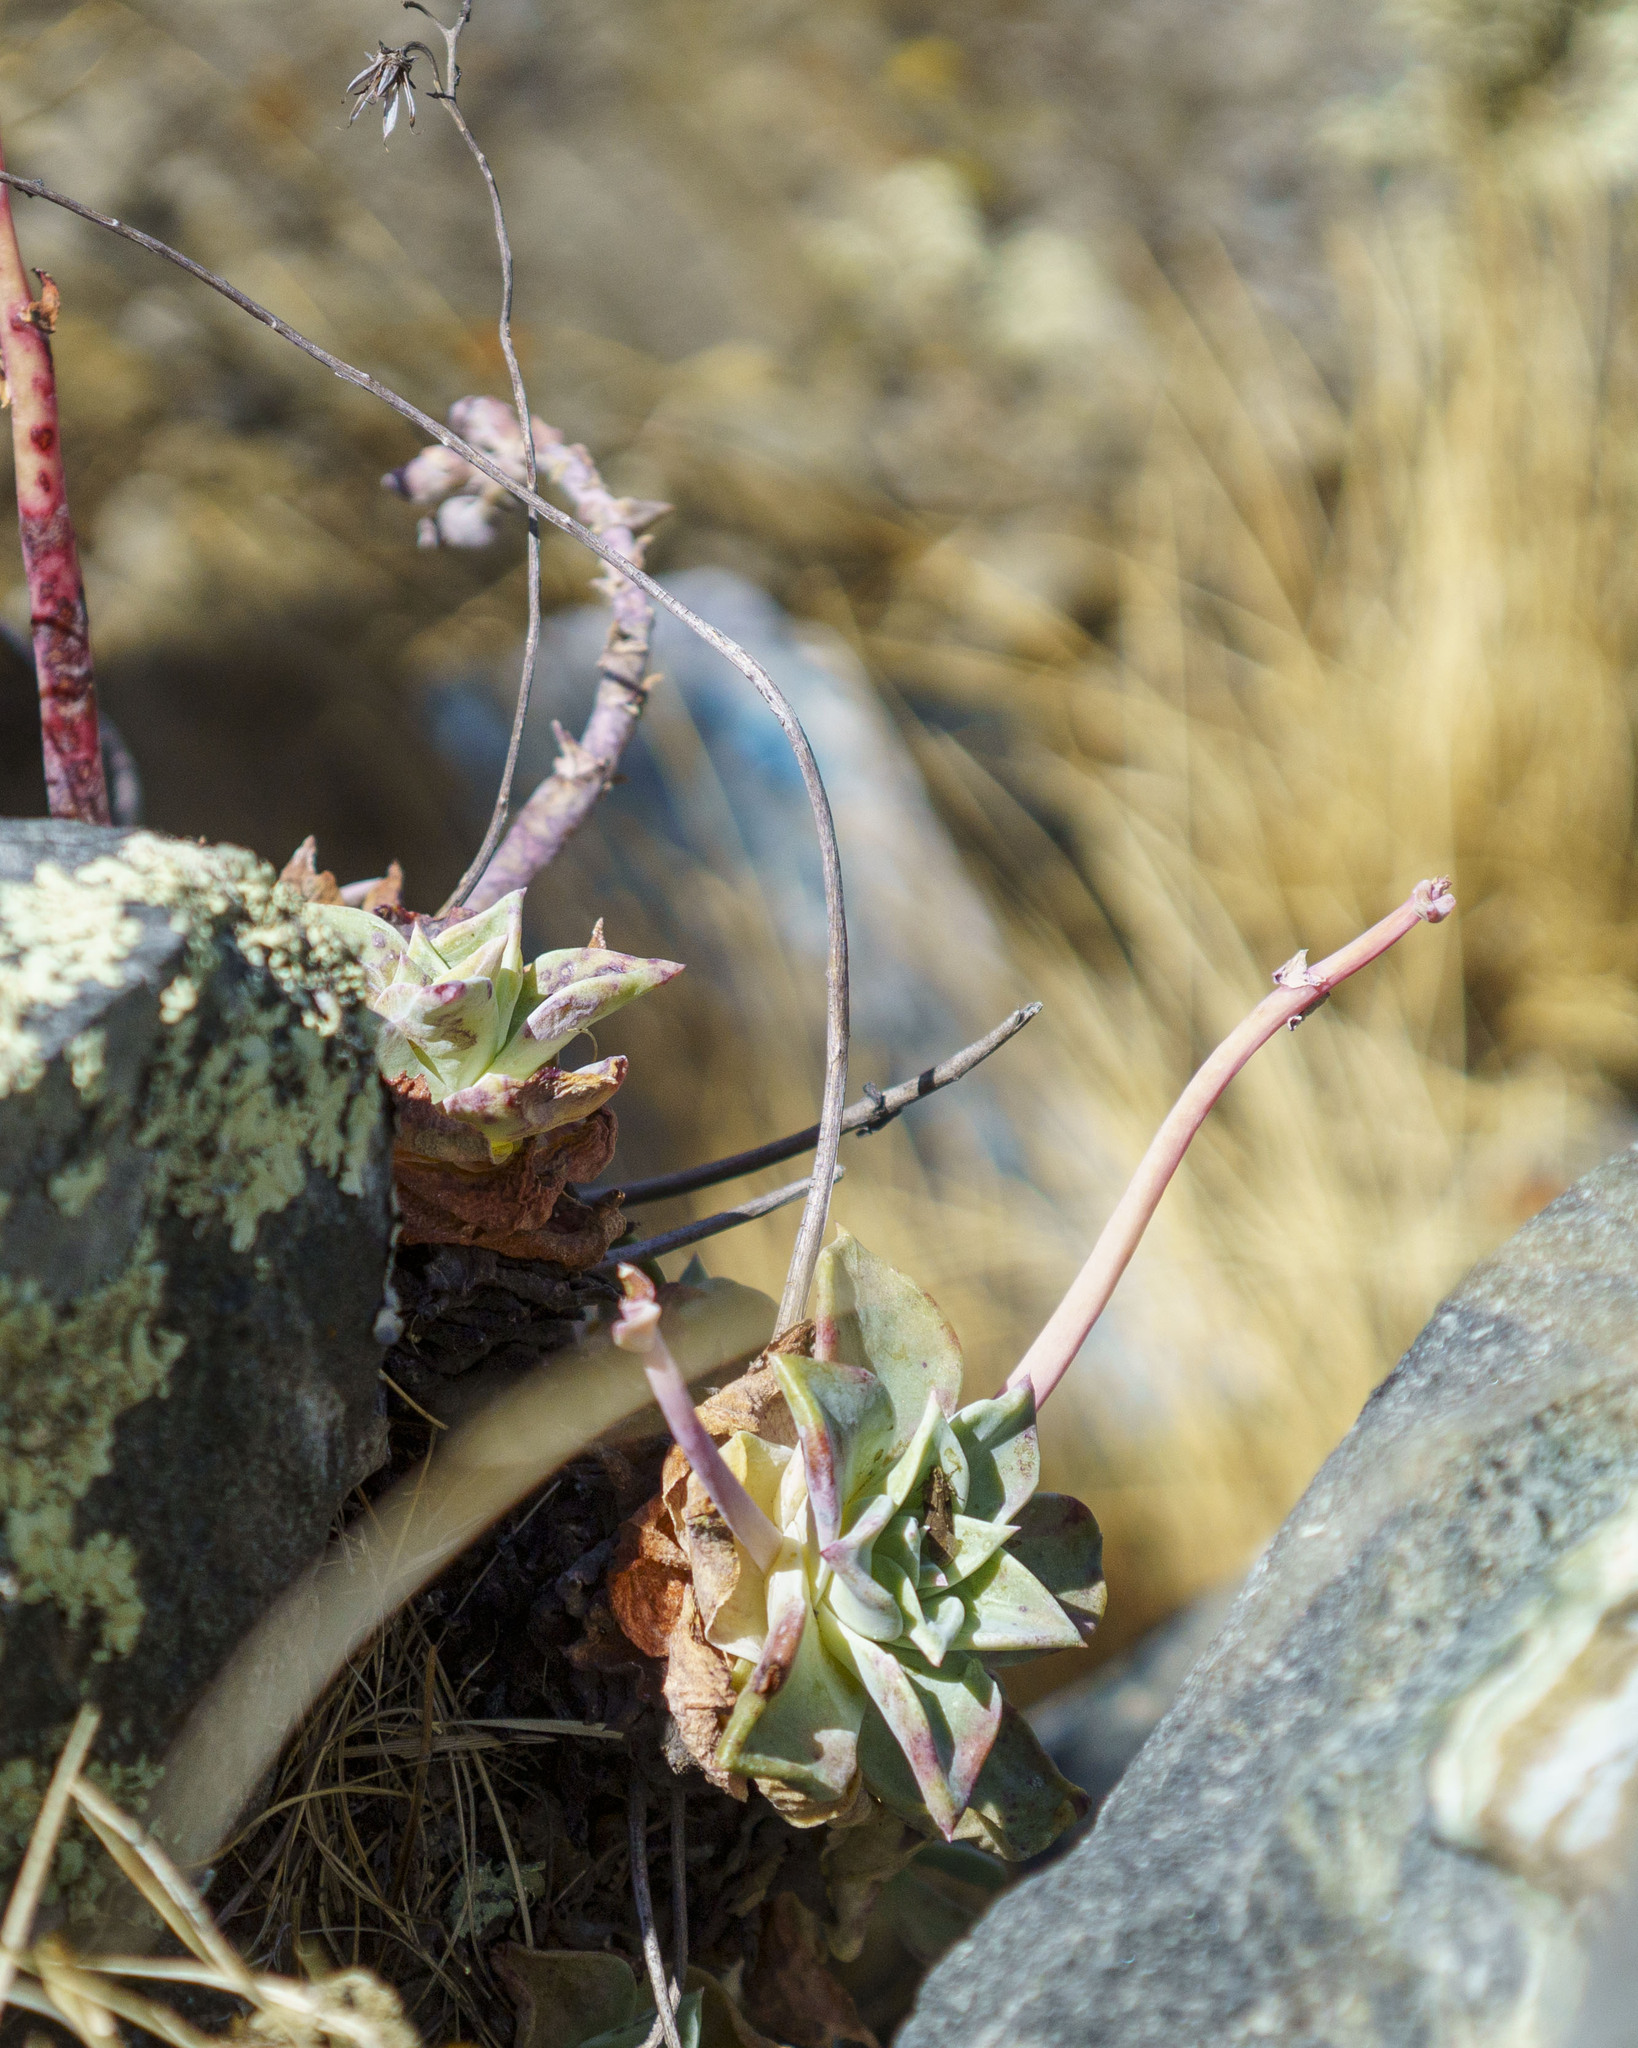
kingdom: Plantae
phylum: Tracheophyta
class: Magnoliopsida
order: Saxifragales
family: Crassulaceae
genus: Dudleya
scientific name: Dudleya rigida
